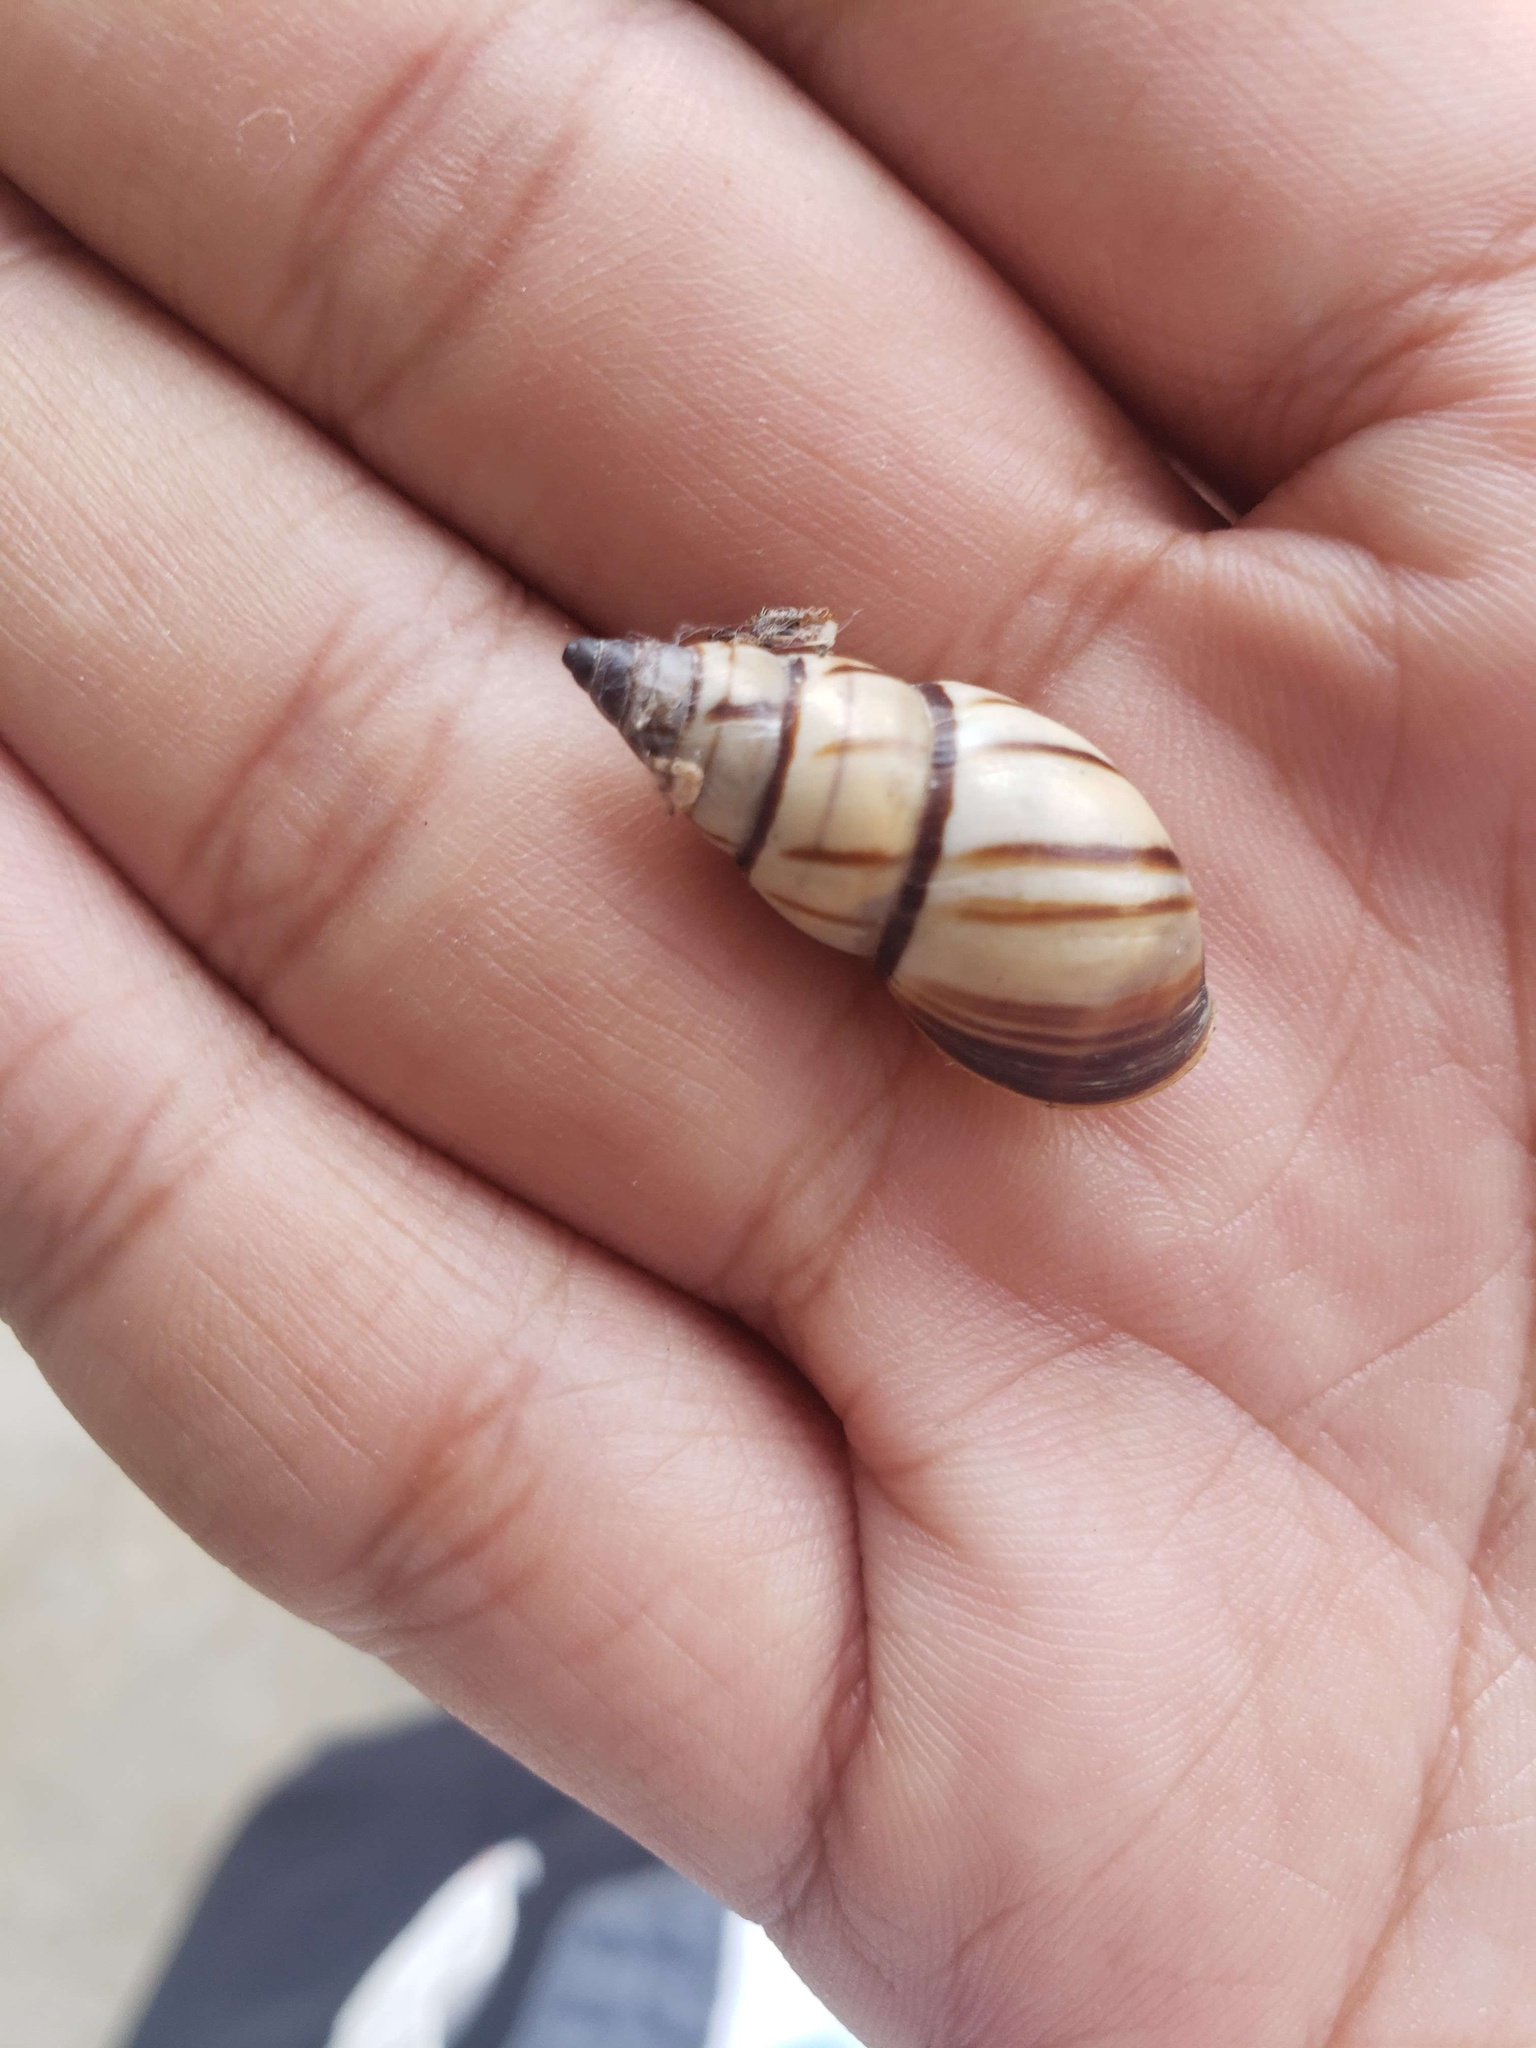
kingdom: Animalia
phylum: Mollusca
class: Gastropoda
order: Stylommatophora
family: Bulimulidae
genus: Drymaeus
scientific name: Drymaeus
